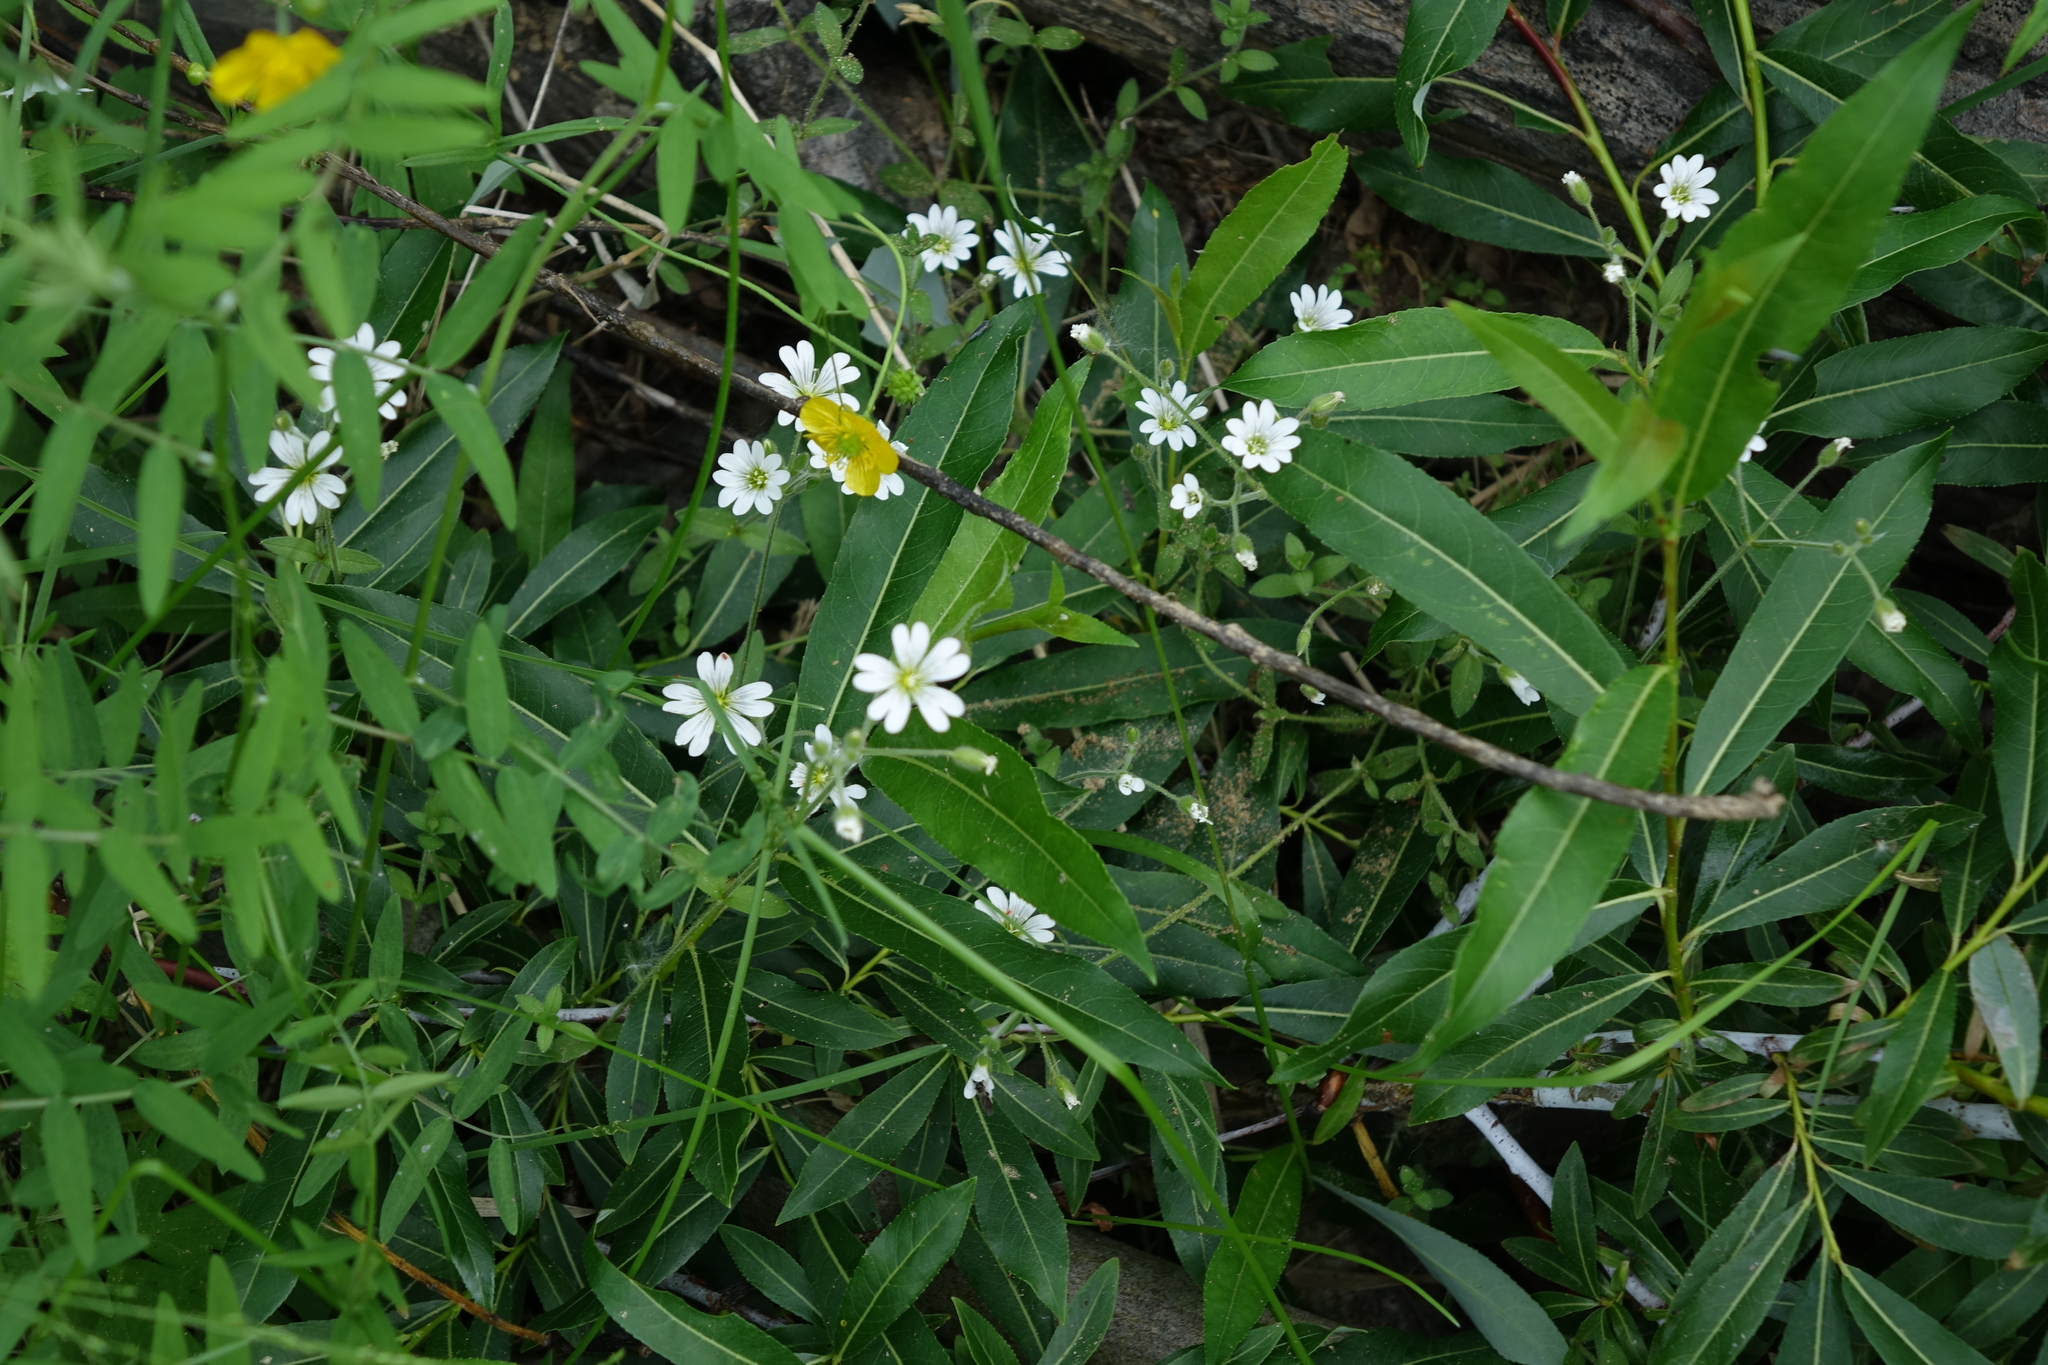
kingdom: Plantae
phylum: Tracheophyta
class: Magnoliopsida
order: Caryophyllales
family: Caryophyllaceae
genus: Cerastium
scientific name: Cerastium arvense
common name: Field mouse-ear
